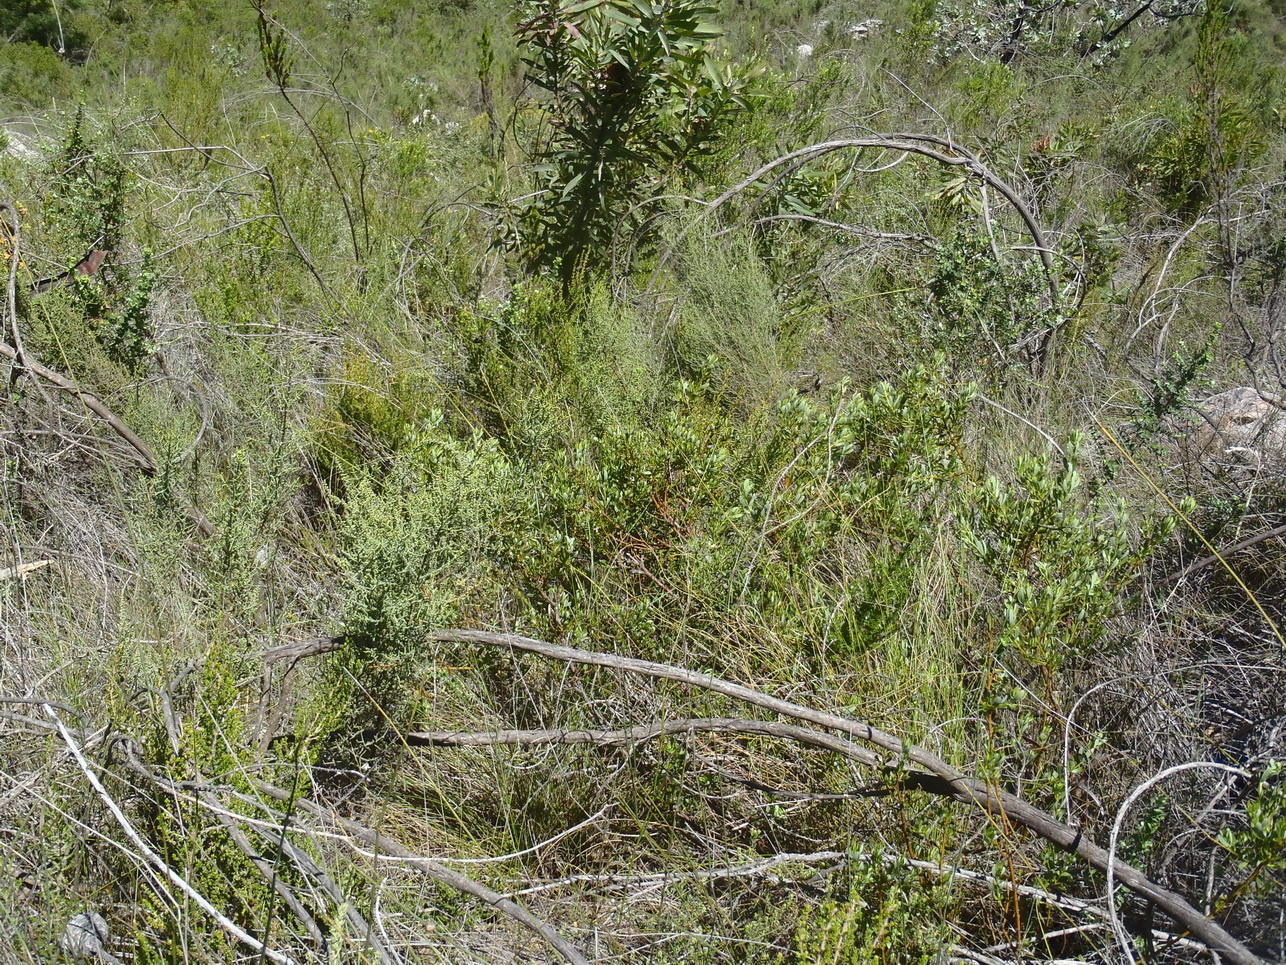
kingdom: Plantae
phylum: Tracheophyta
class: Magnoliopsida
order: Fabales
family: Fabaceae
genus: Cyclopia
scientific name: Cyclopia intermedia
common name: Mountain tea
